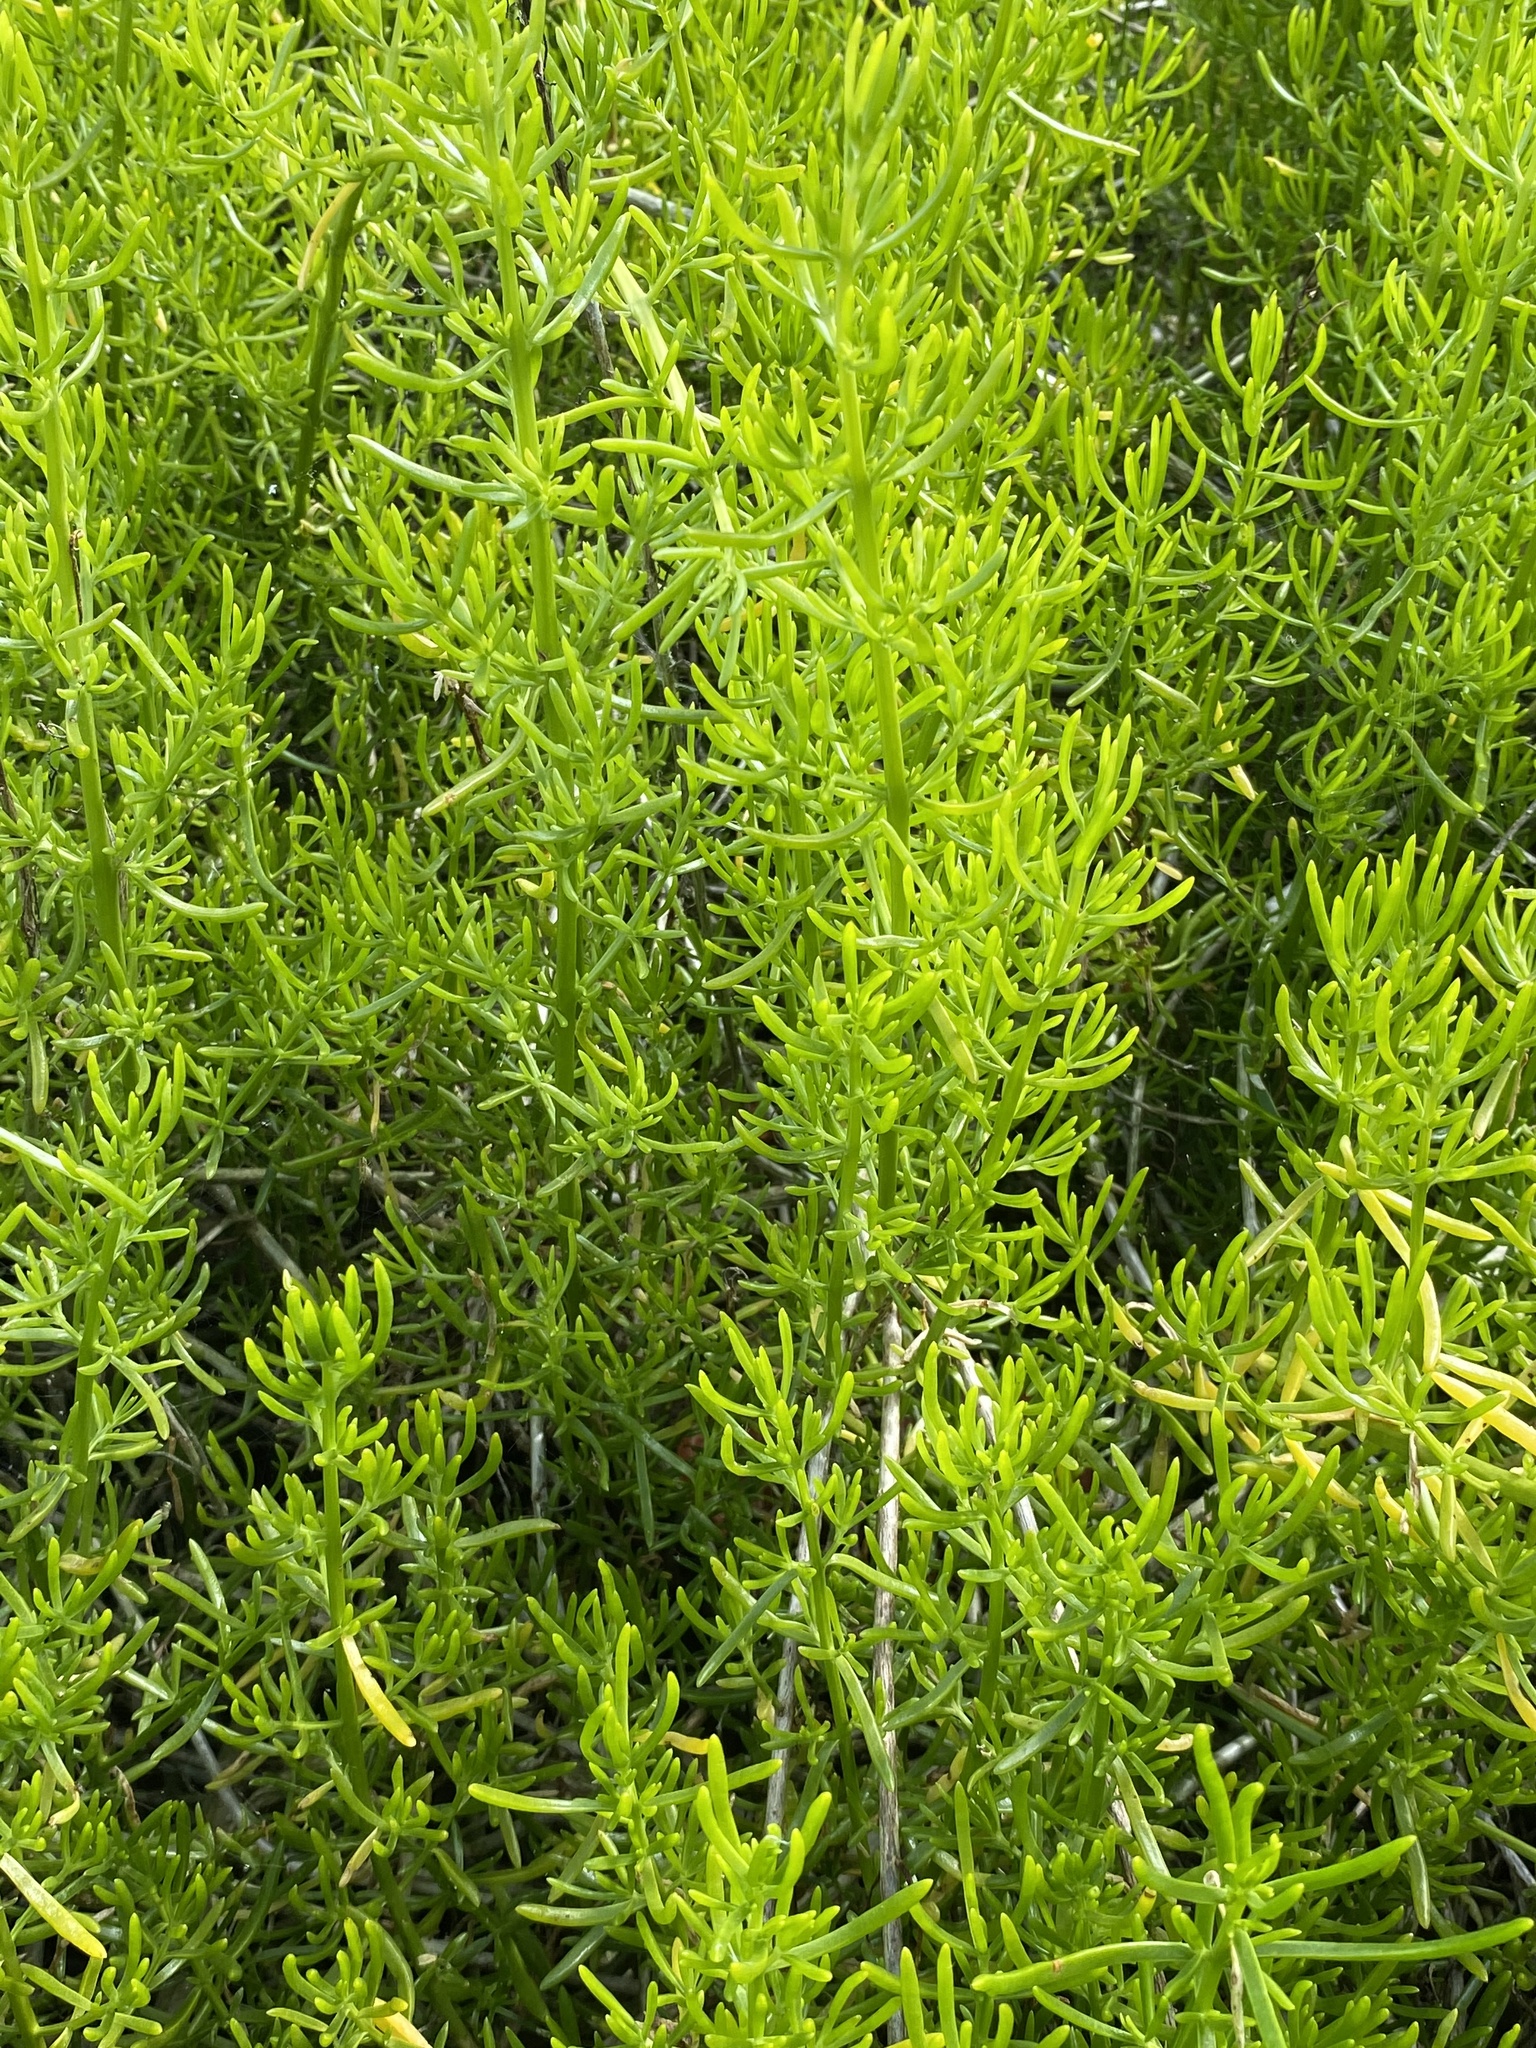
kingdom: Plantae
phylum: Tracheophyta
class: Magnoliopsida
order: Brassicales
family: Bataceae
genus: Batis
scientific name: Batis maritima
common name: Turtleweed
